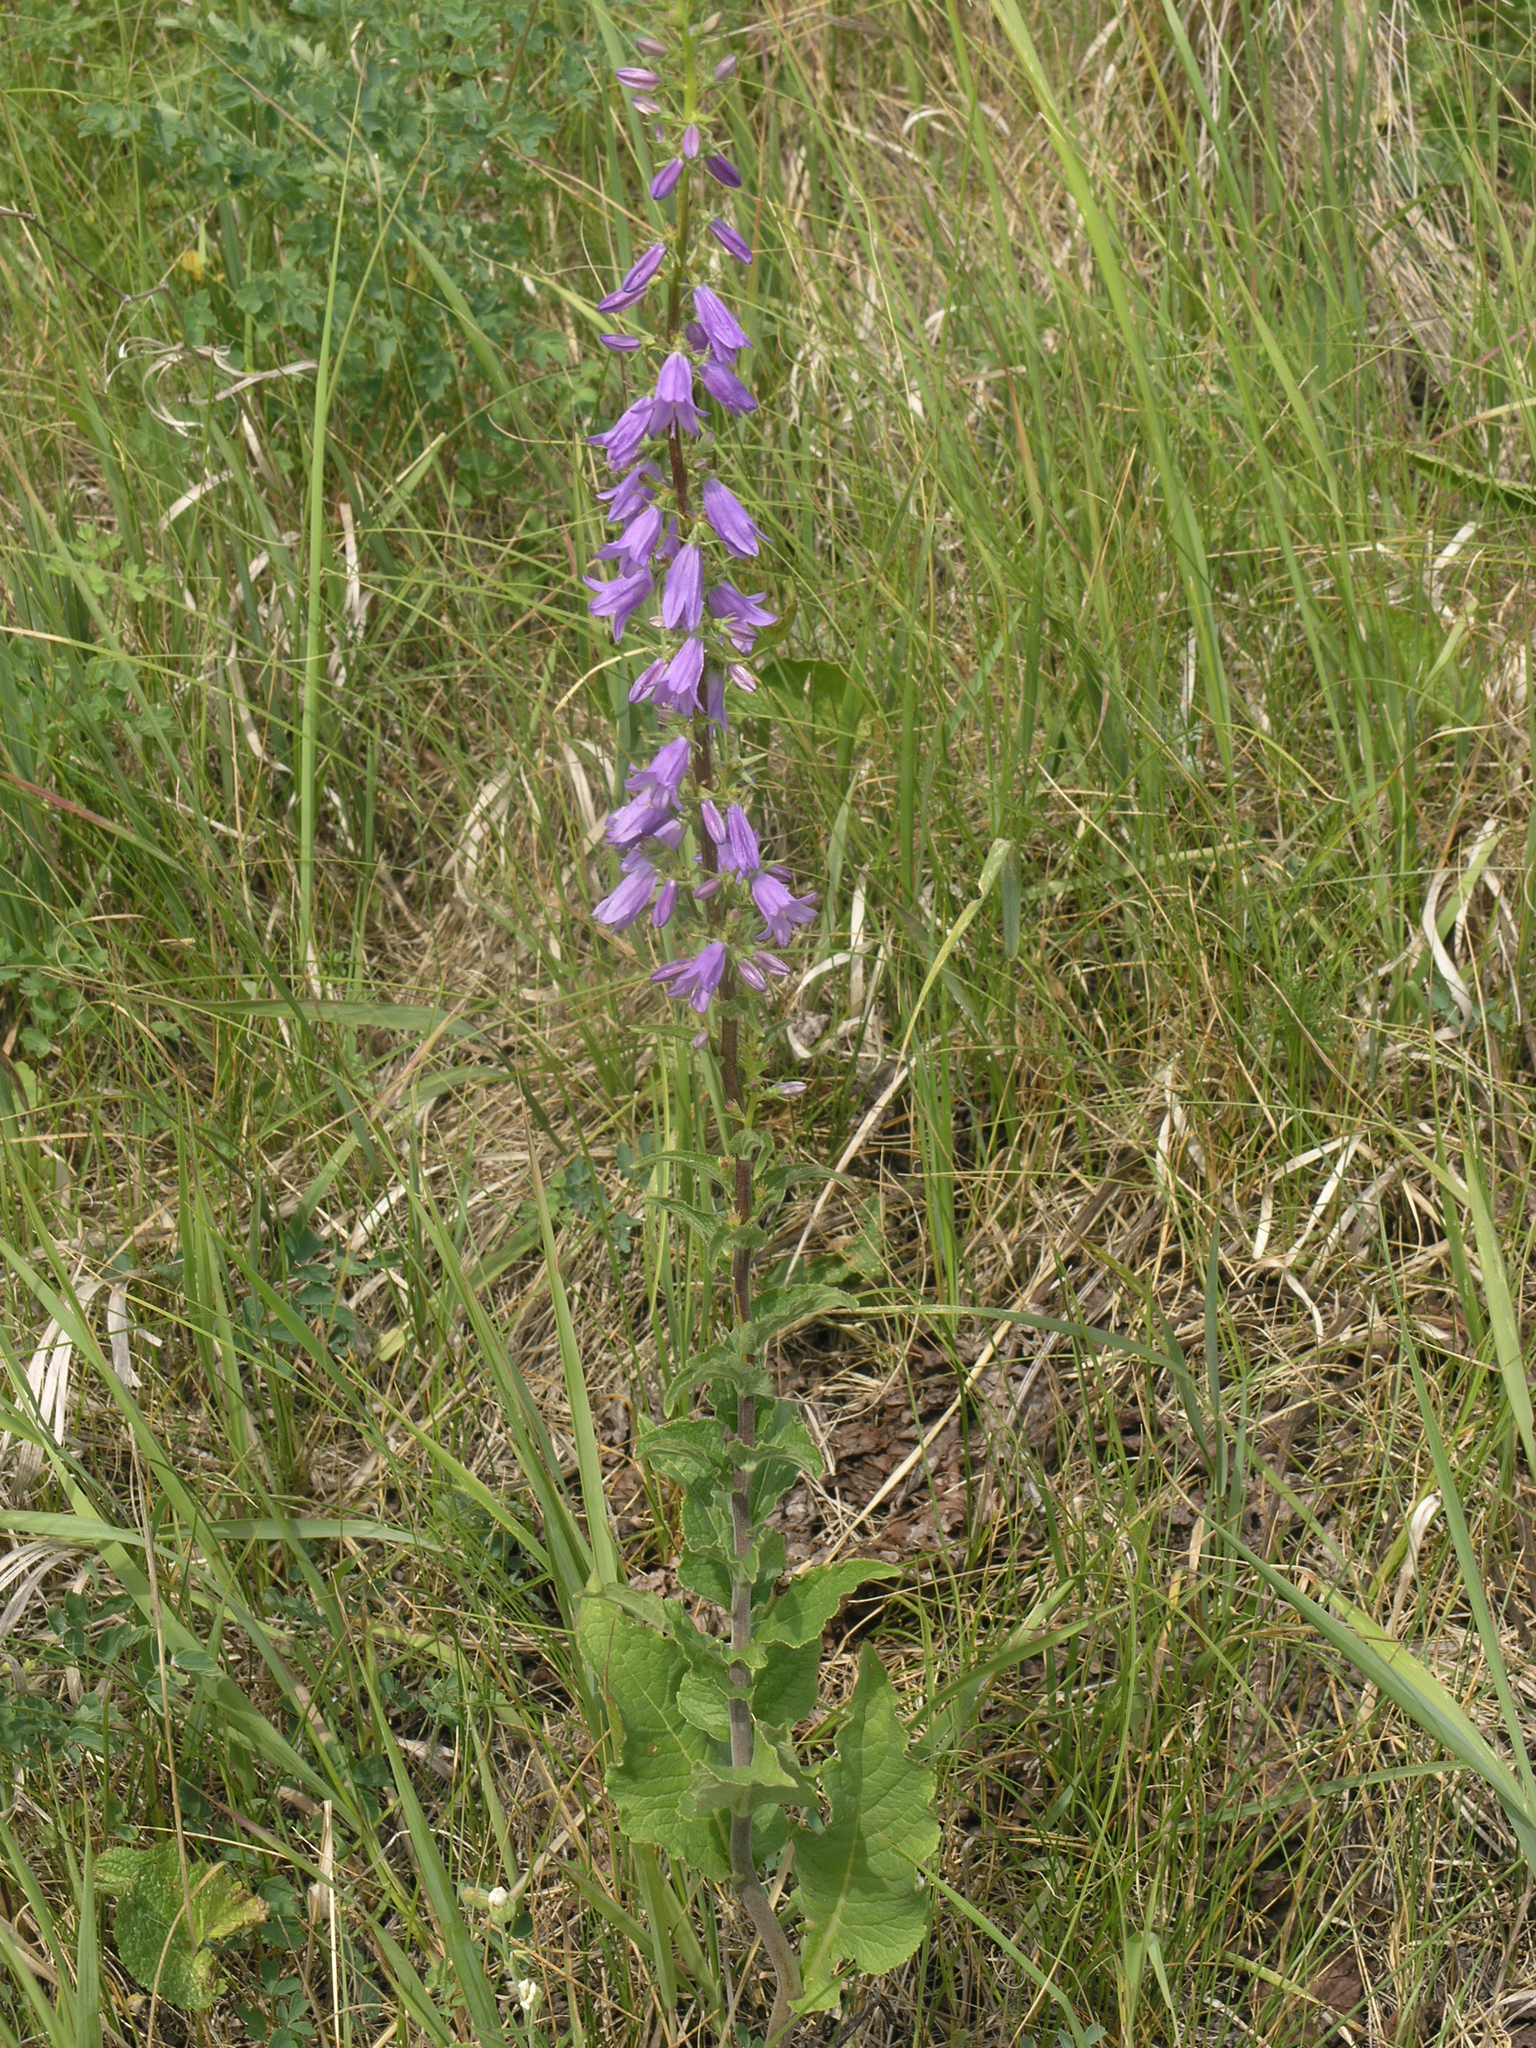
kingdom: Plantae
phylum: Tracheophyta
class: Magnoliopsida
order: Asterales
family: Campanulaceae
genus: Campanula
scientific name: Campanula bononiensis
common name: Pale bellflower
